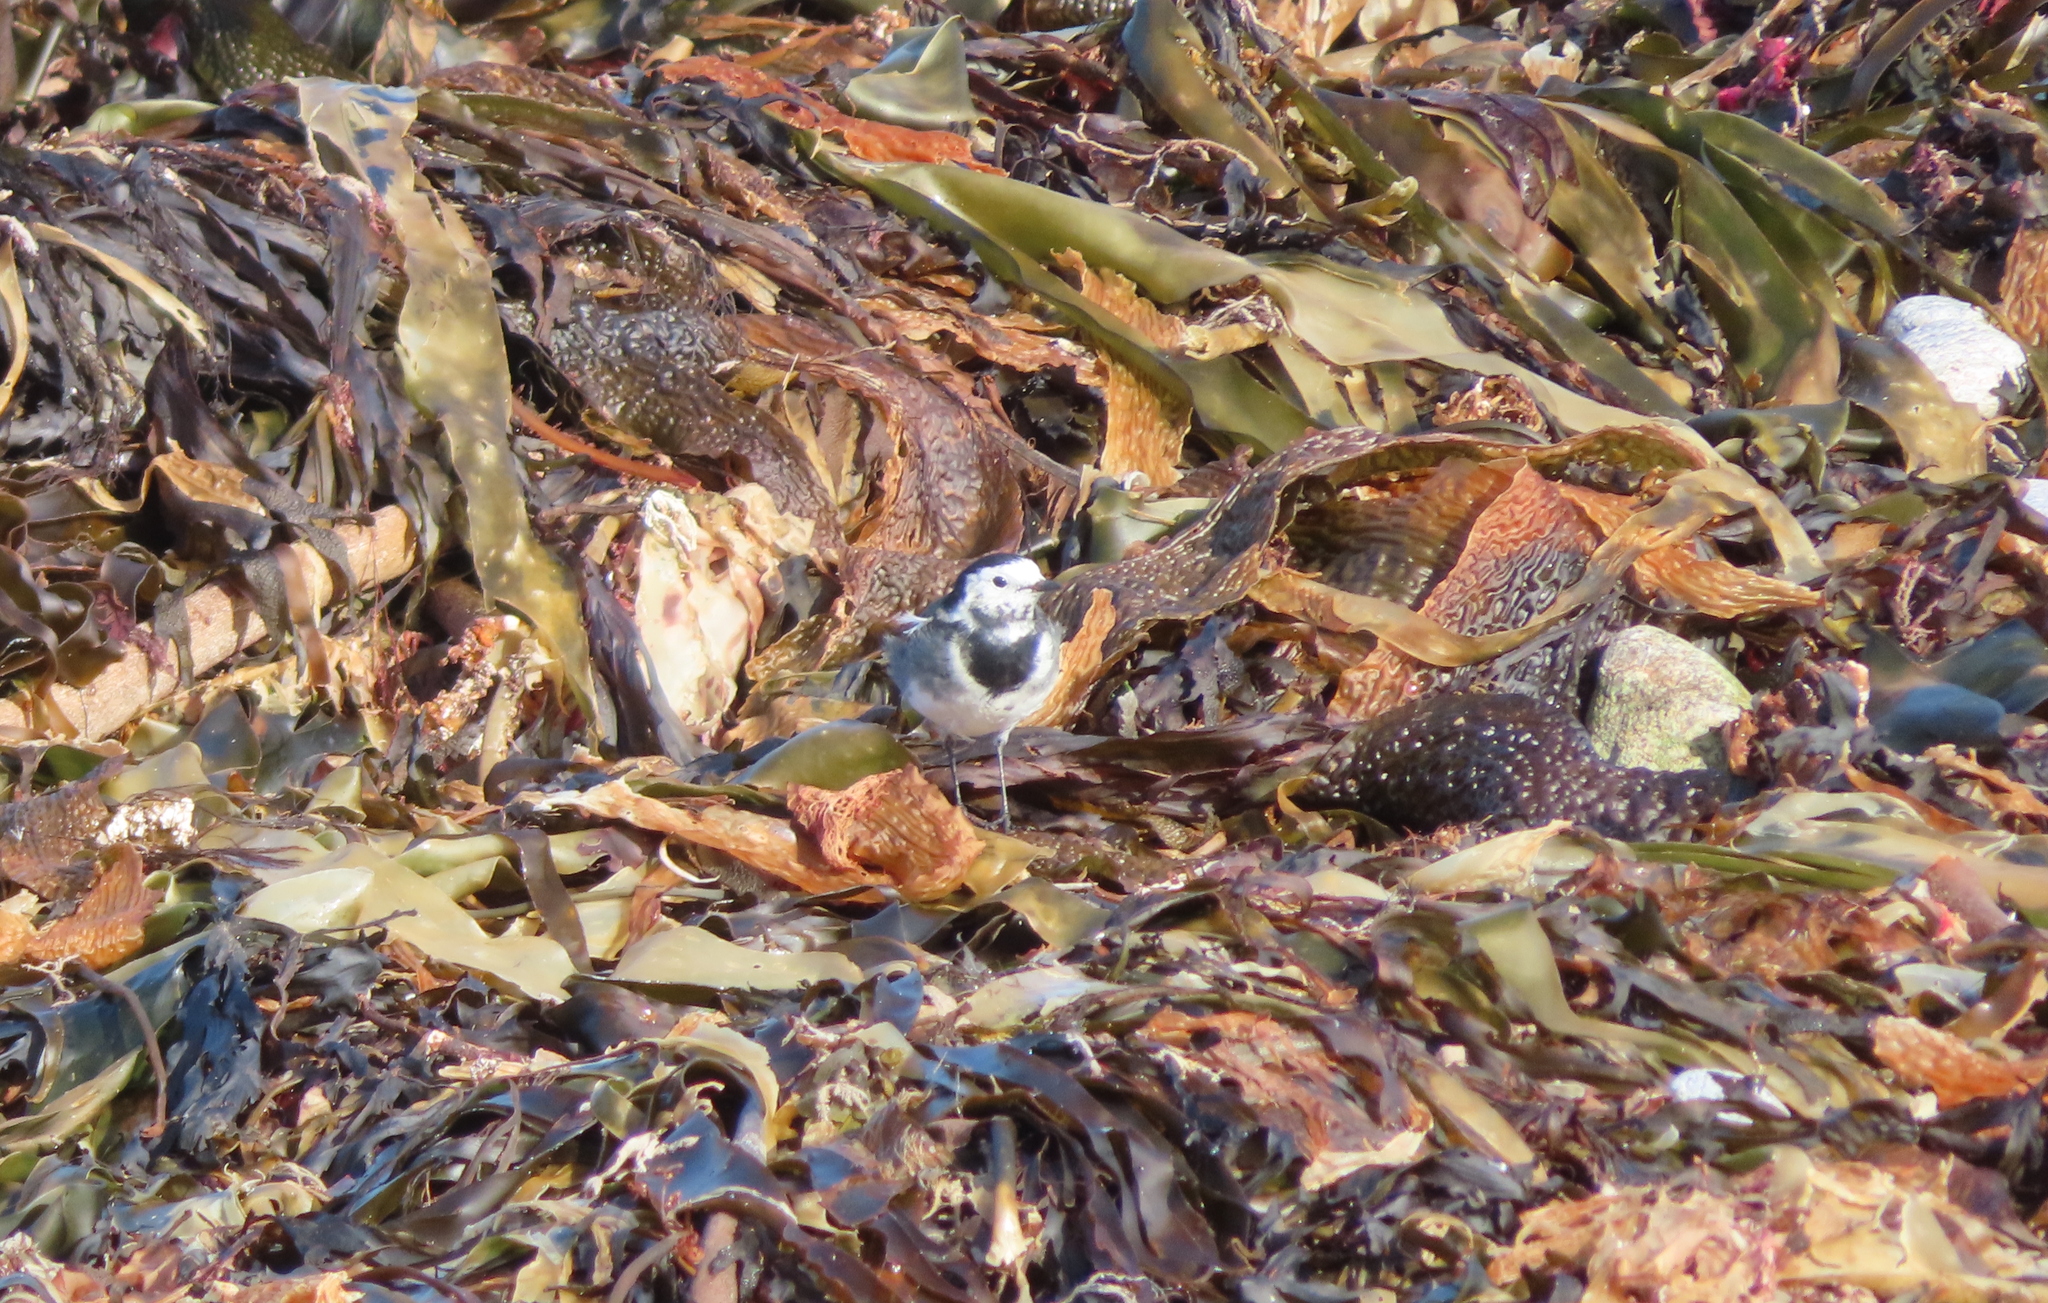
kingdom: Chromista
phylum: Ochrophyta
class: Phaeophyceae
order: Laminariales
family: Laminariaceae
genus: Saccharina
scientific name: Saccharina latissima
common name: Poor man's weather glass
